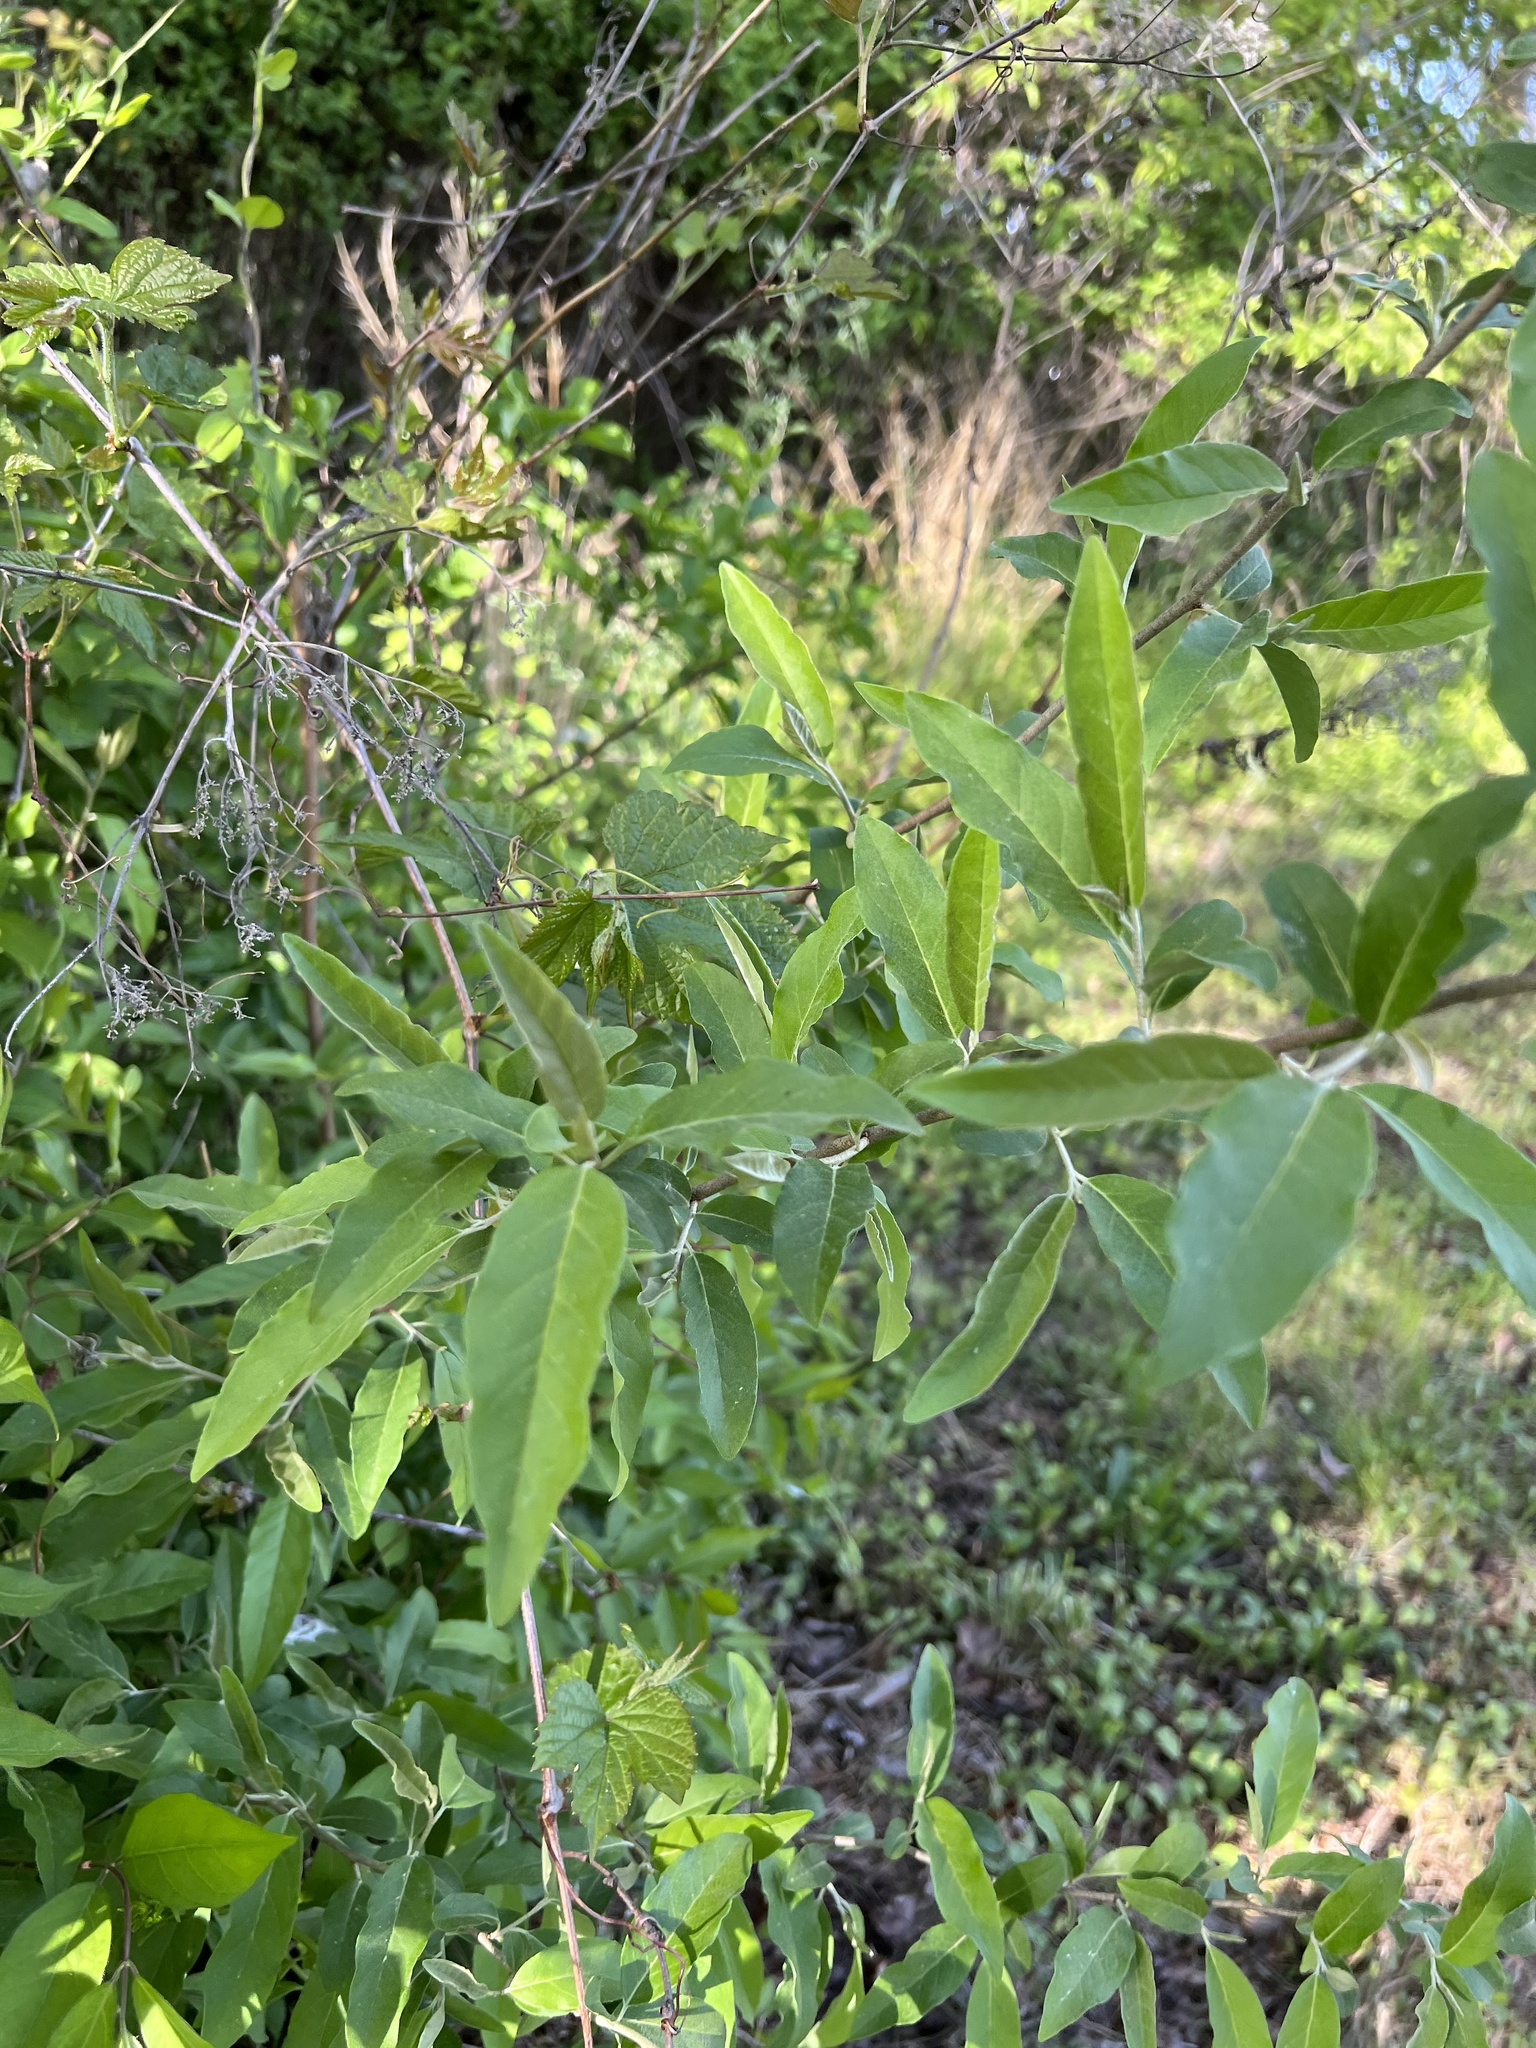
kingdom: Plantae
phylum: Tracheophyta
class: Magnoliopsida
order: Rosales
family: Elaeagnaceae
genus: Elaeagnus
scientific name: Elaeagnus umbellata
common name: Autumn olive
